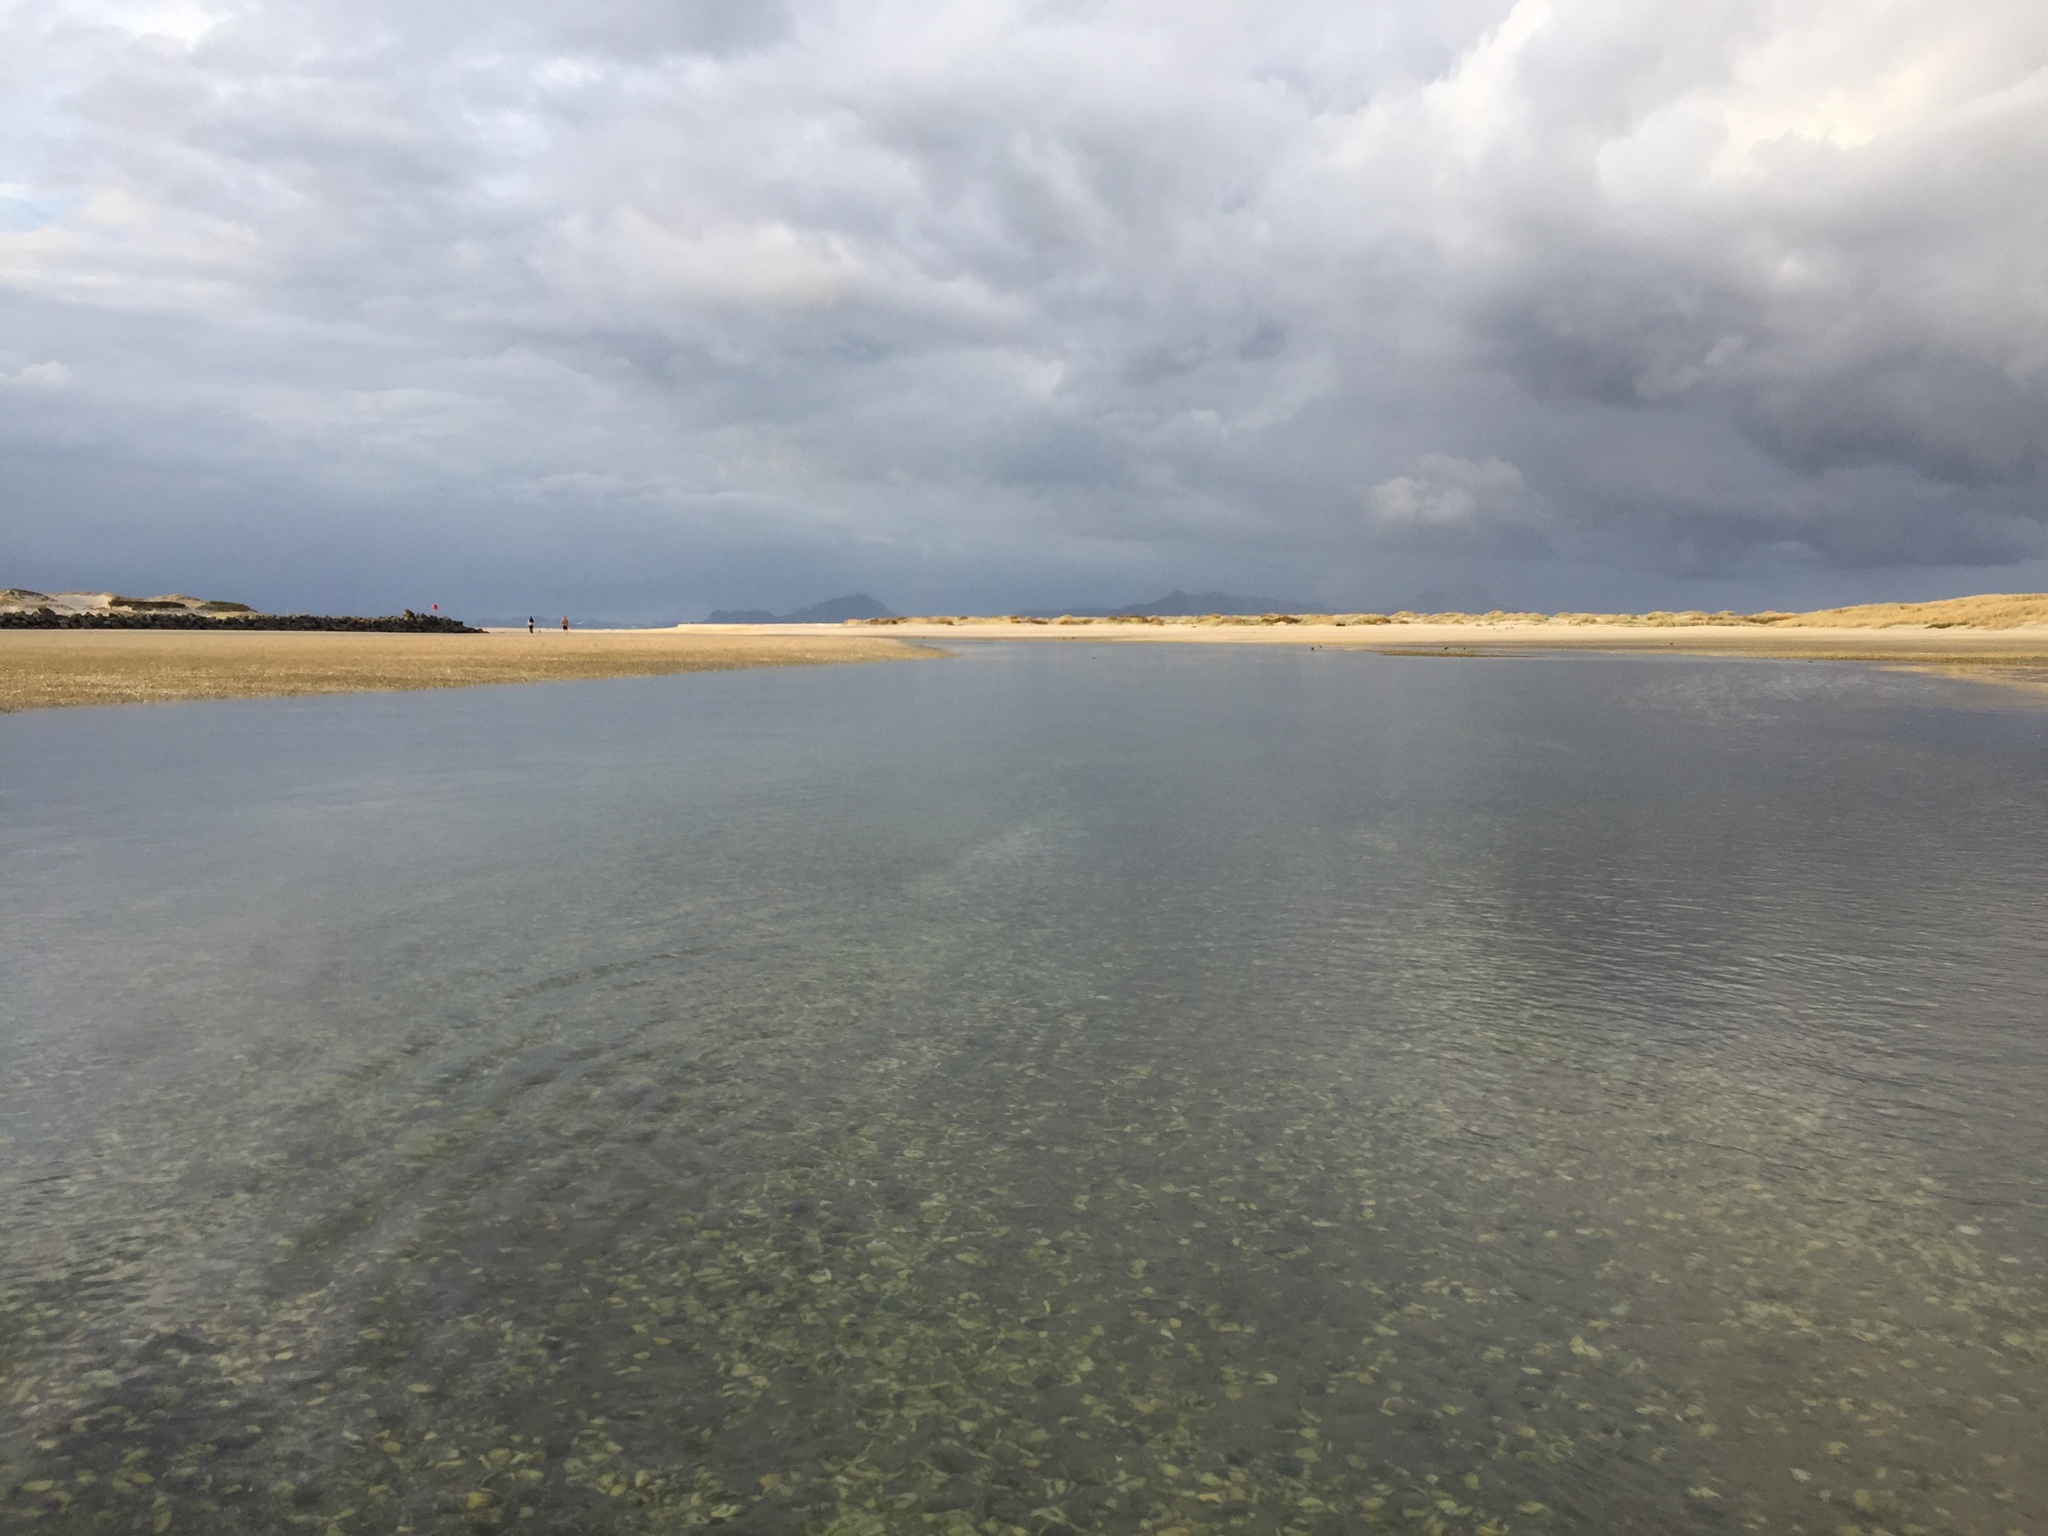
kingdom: Animalia
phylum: Echinodermata
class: Asteroidea
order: Valvatida
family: Asterinidae
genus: Patiriella
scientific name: Patiriella regularis
